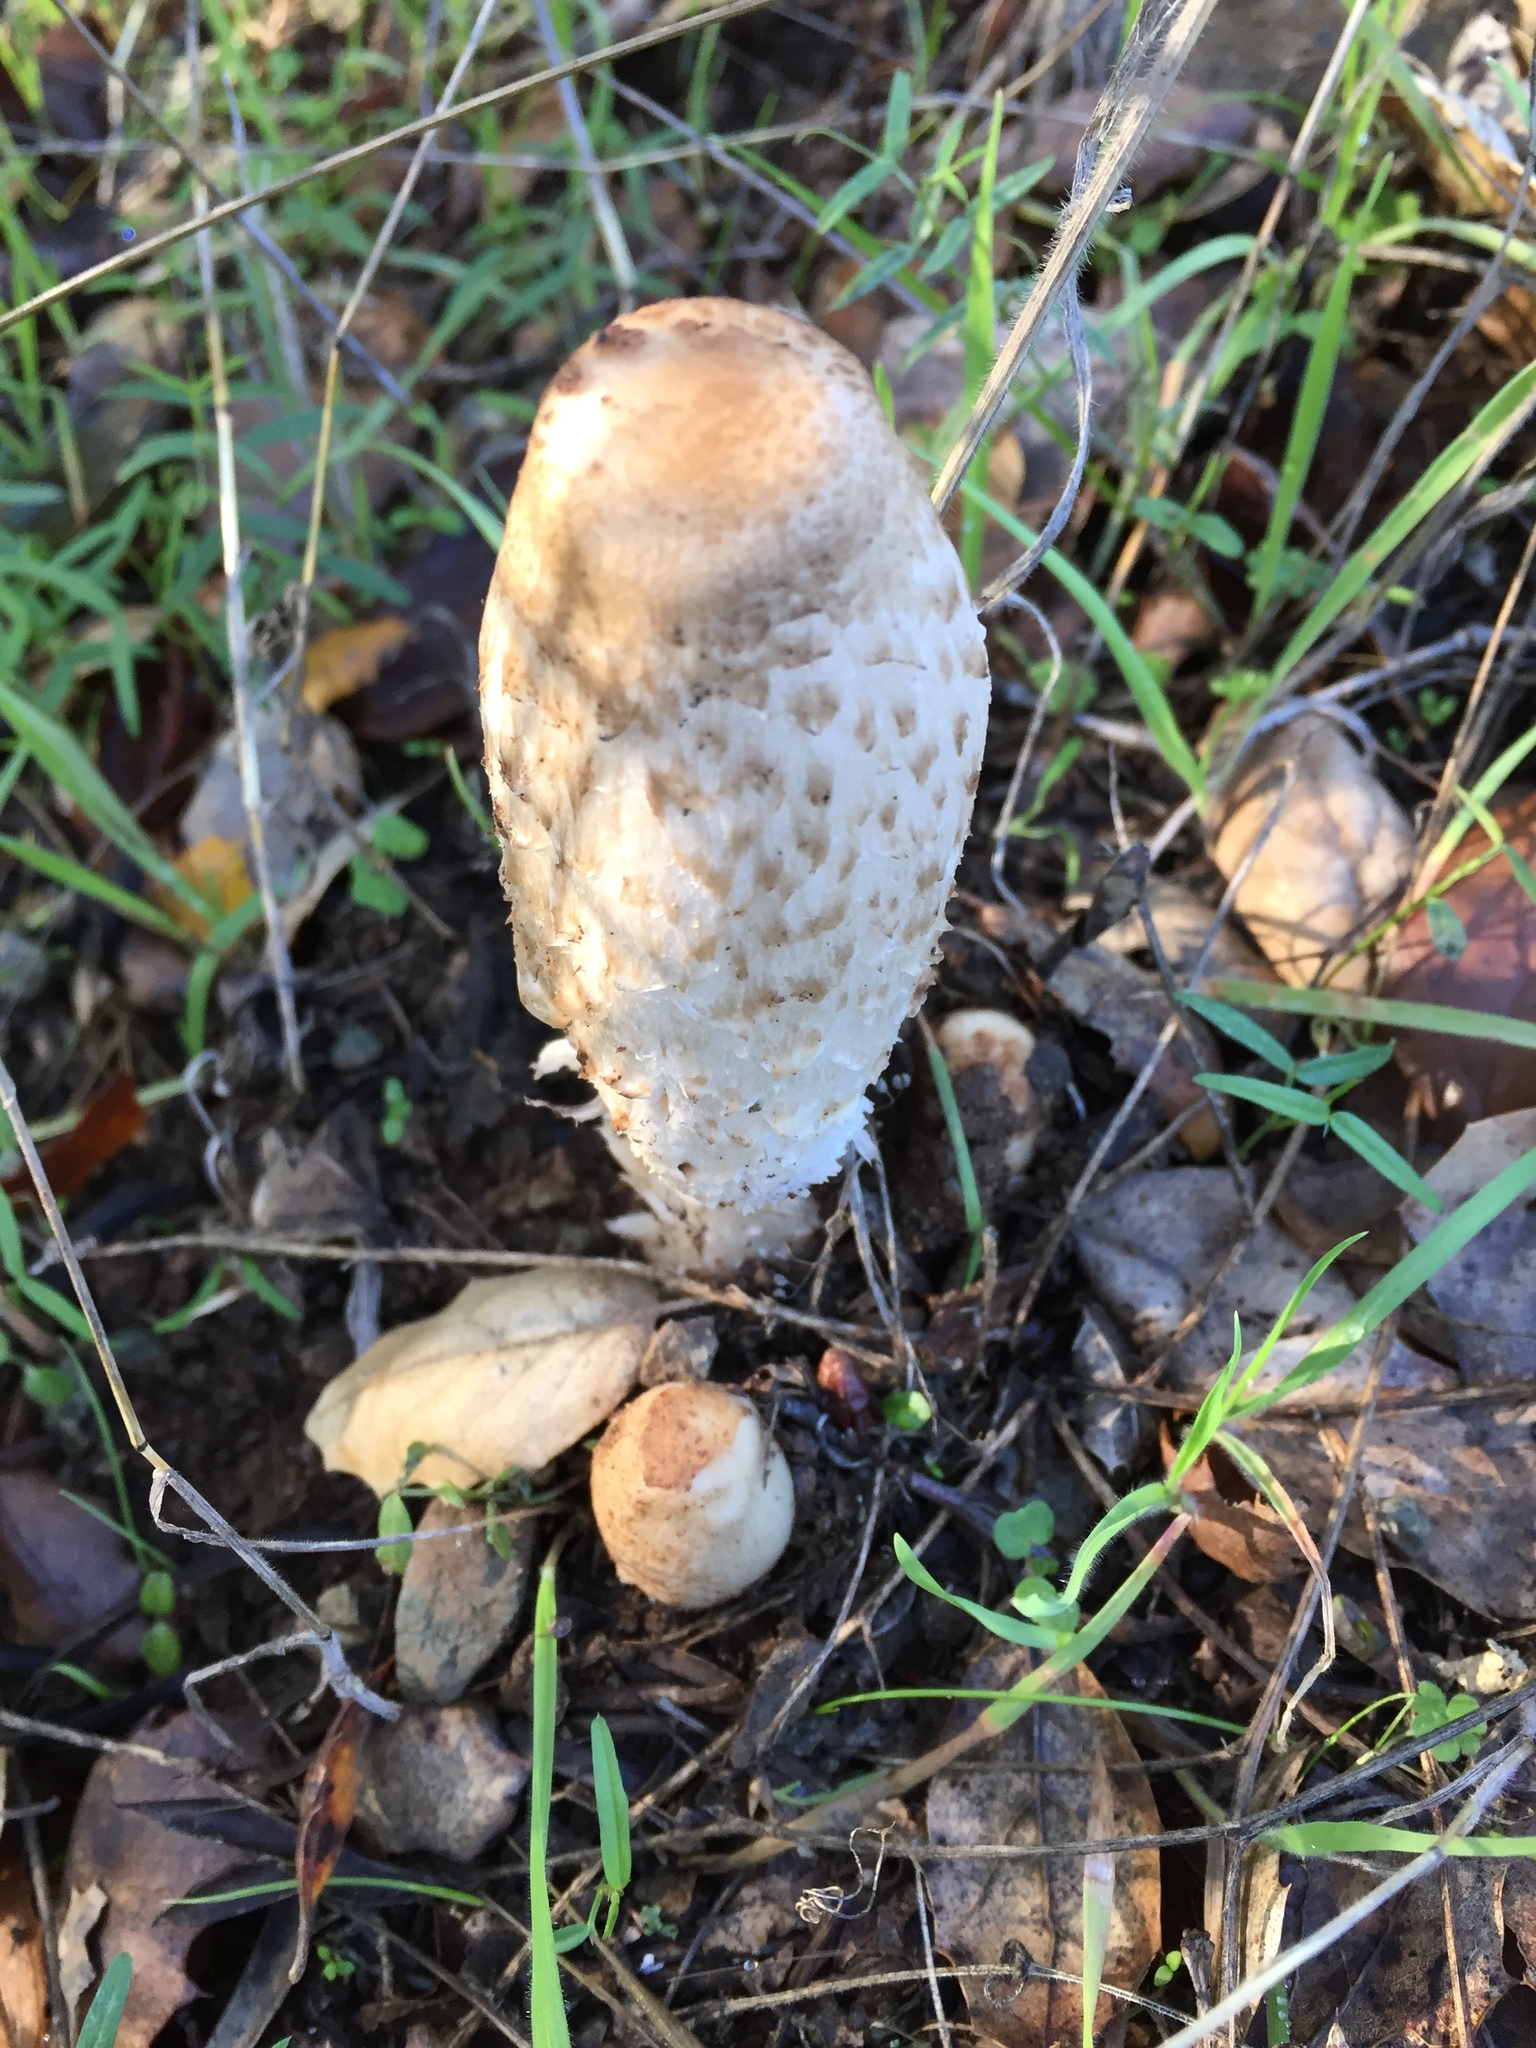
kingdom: Fungi
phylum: Basidiomycota
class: Agaricomycetes
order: Agaricales
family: Agaricaceae
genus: Coprinus
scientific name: Coprinus comatus
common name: Lawyer's wig
